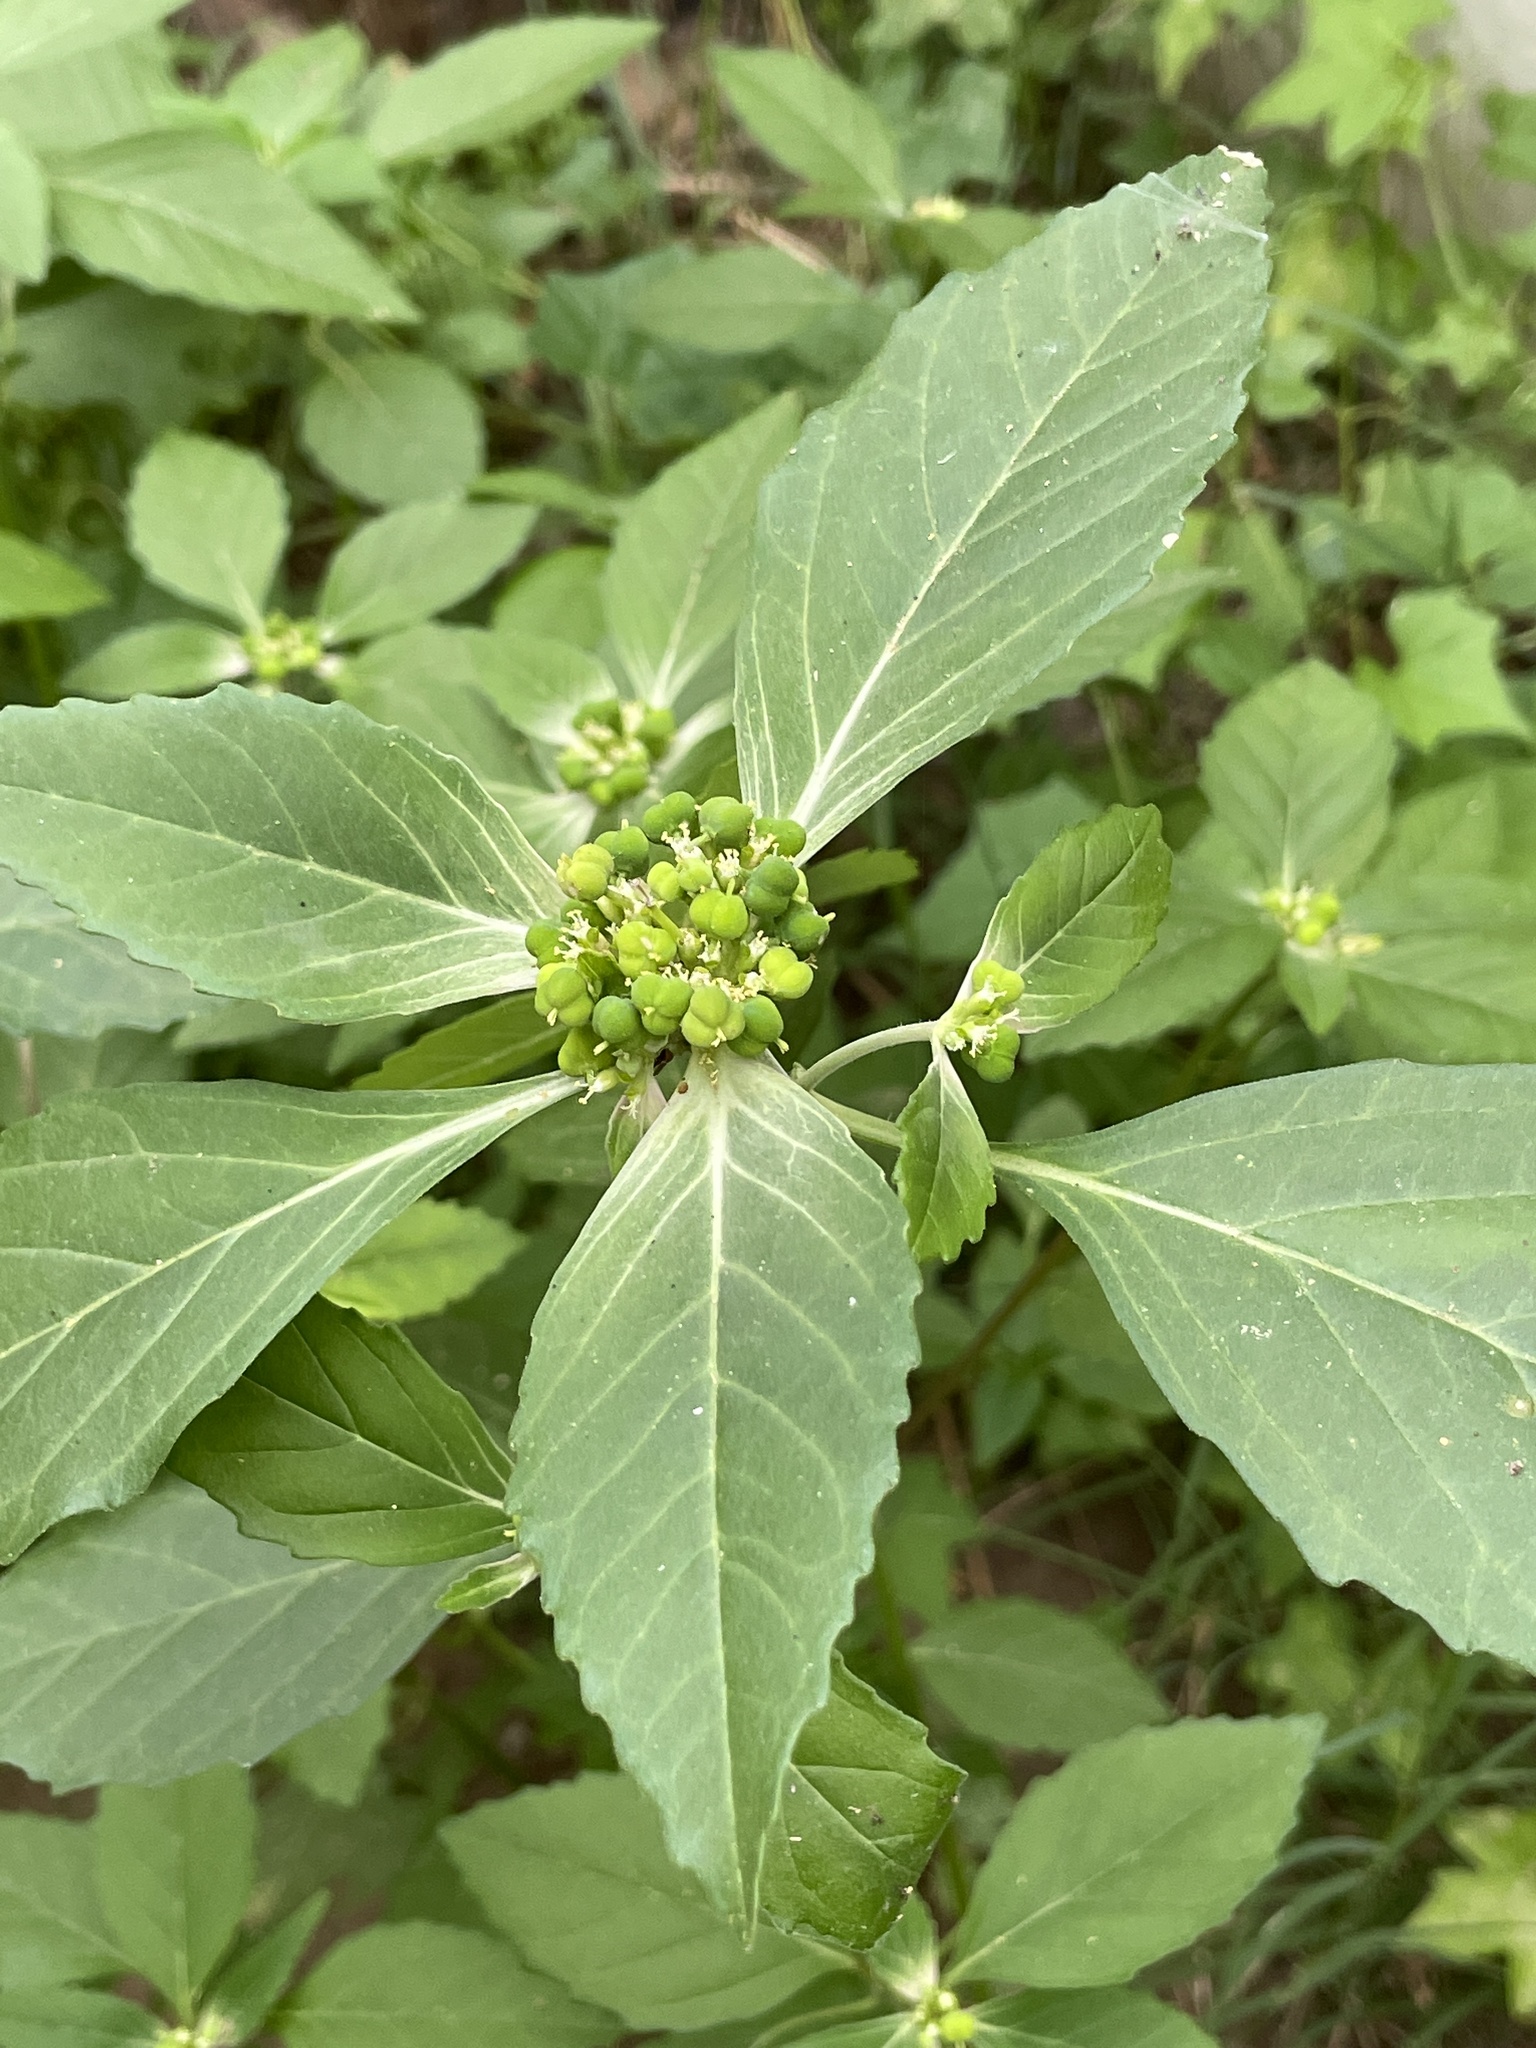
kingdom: Plantae
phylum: Tracheophyta
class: Magnoliopsida
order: Malpighiales
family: Euphorbiaceae
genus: Euphorbia
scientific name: Euphorbia dentata
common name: Dentate spurge
